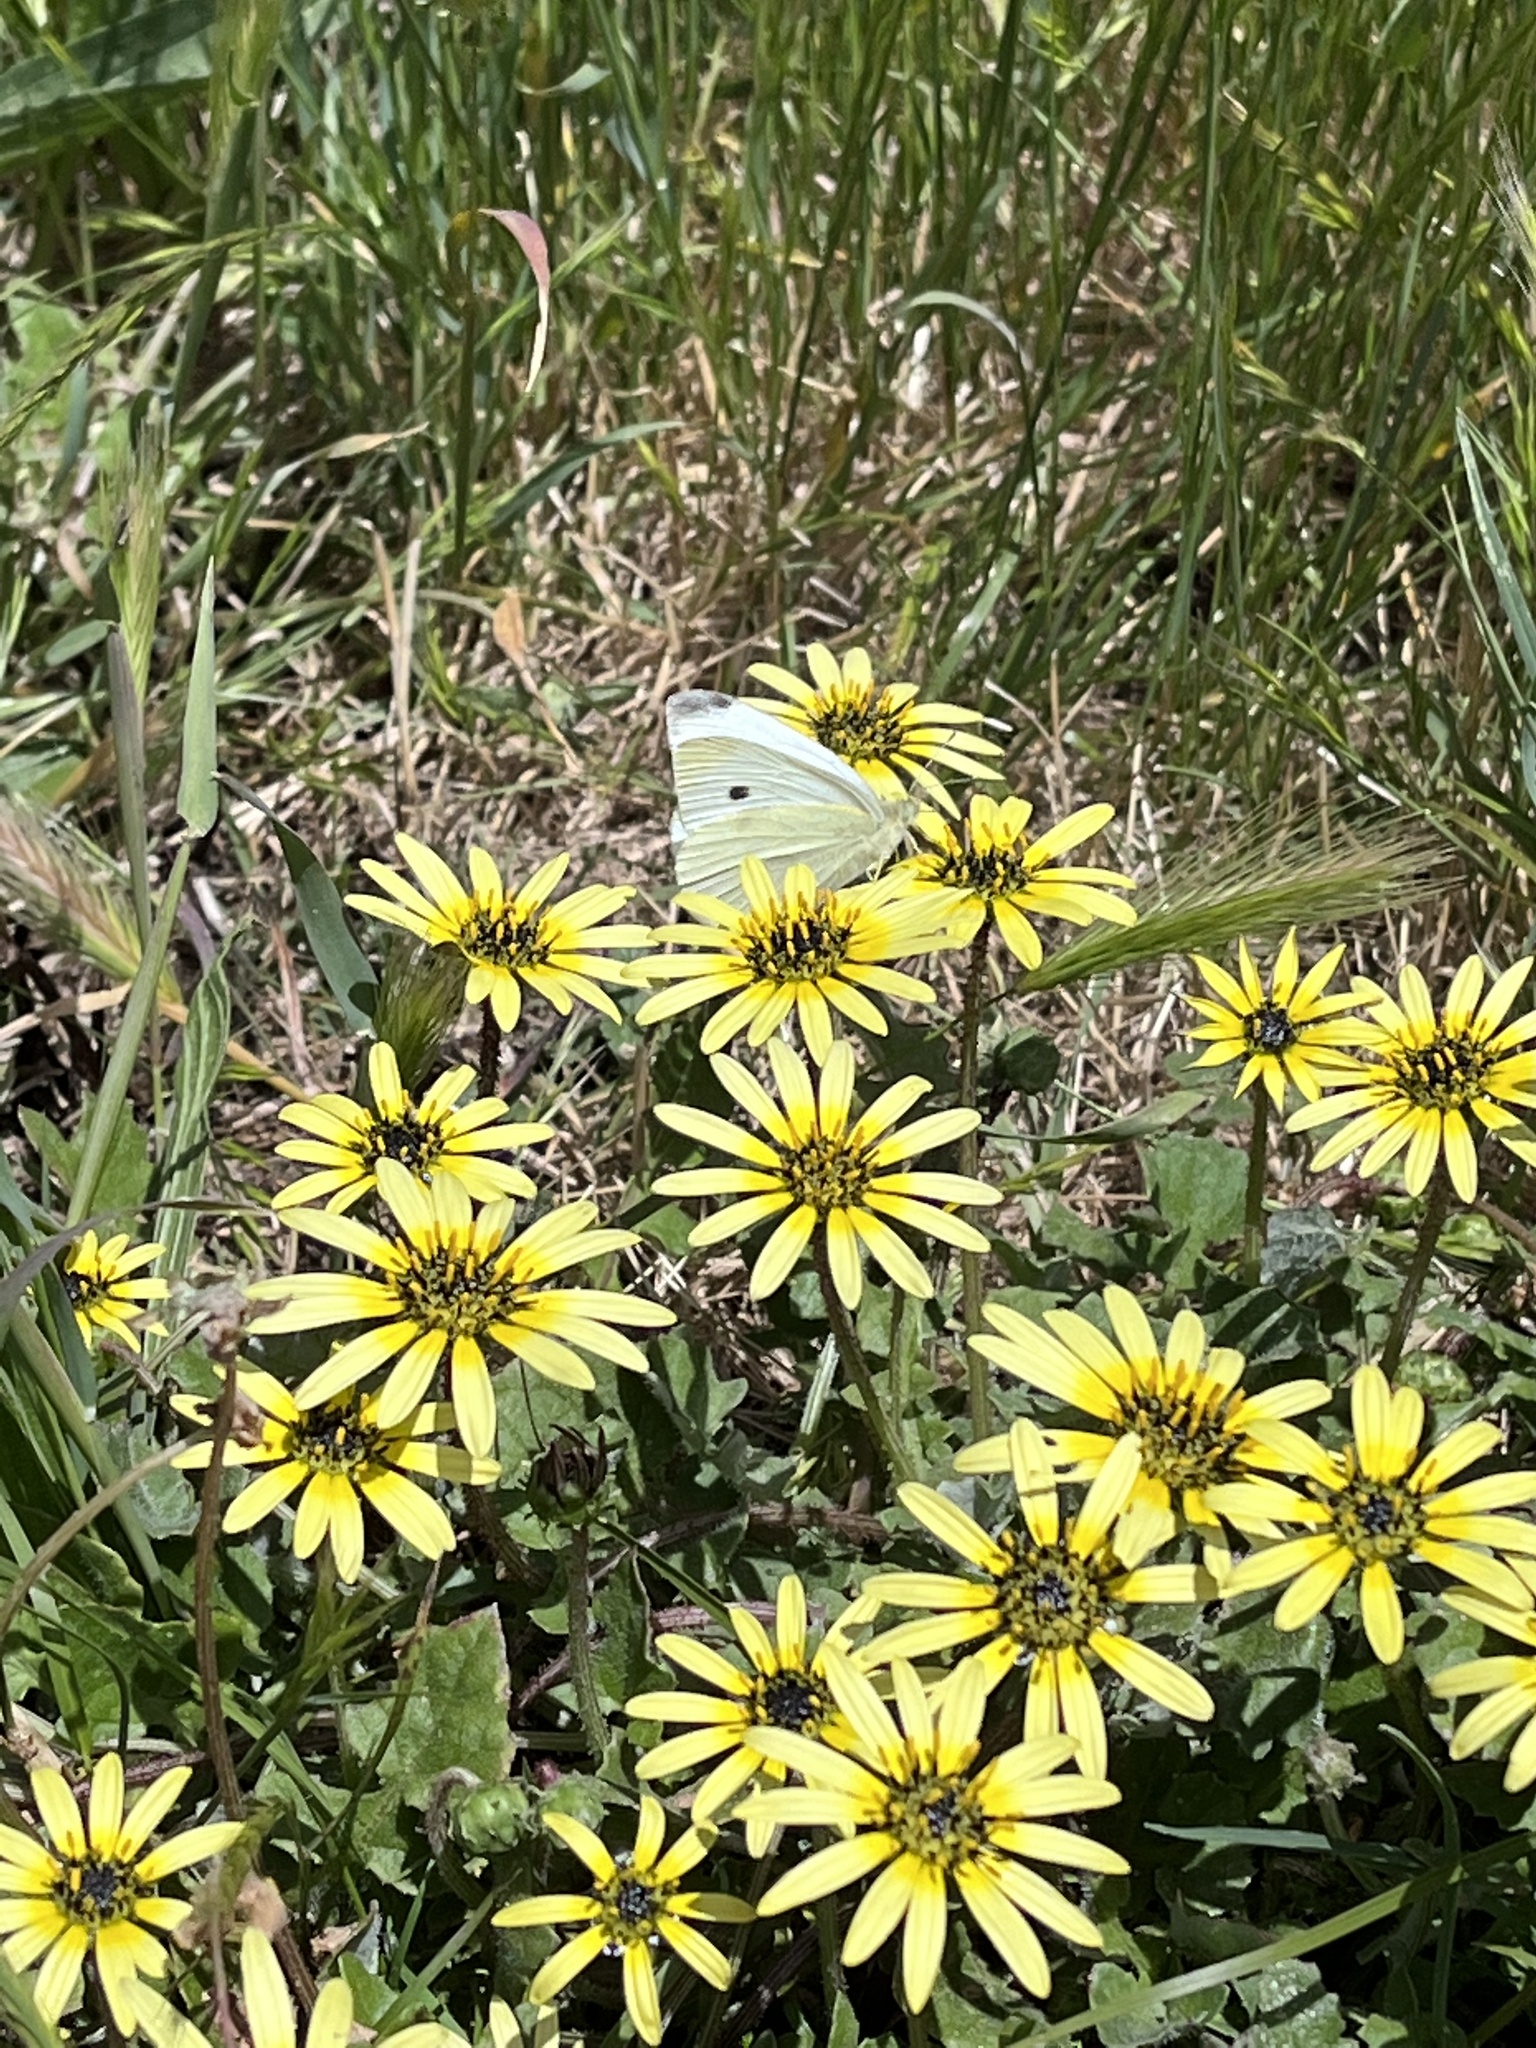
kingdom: Animalia
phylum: Arthropoda
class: Insecta
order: Lepidoptera
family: Pieridae
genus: Pieris
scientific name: Pieris rapae
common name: Small white
